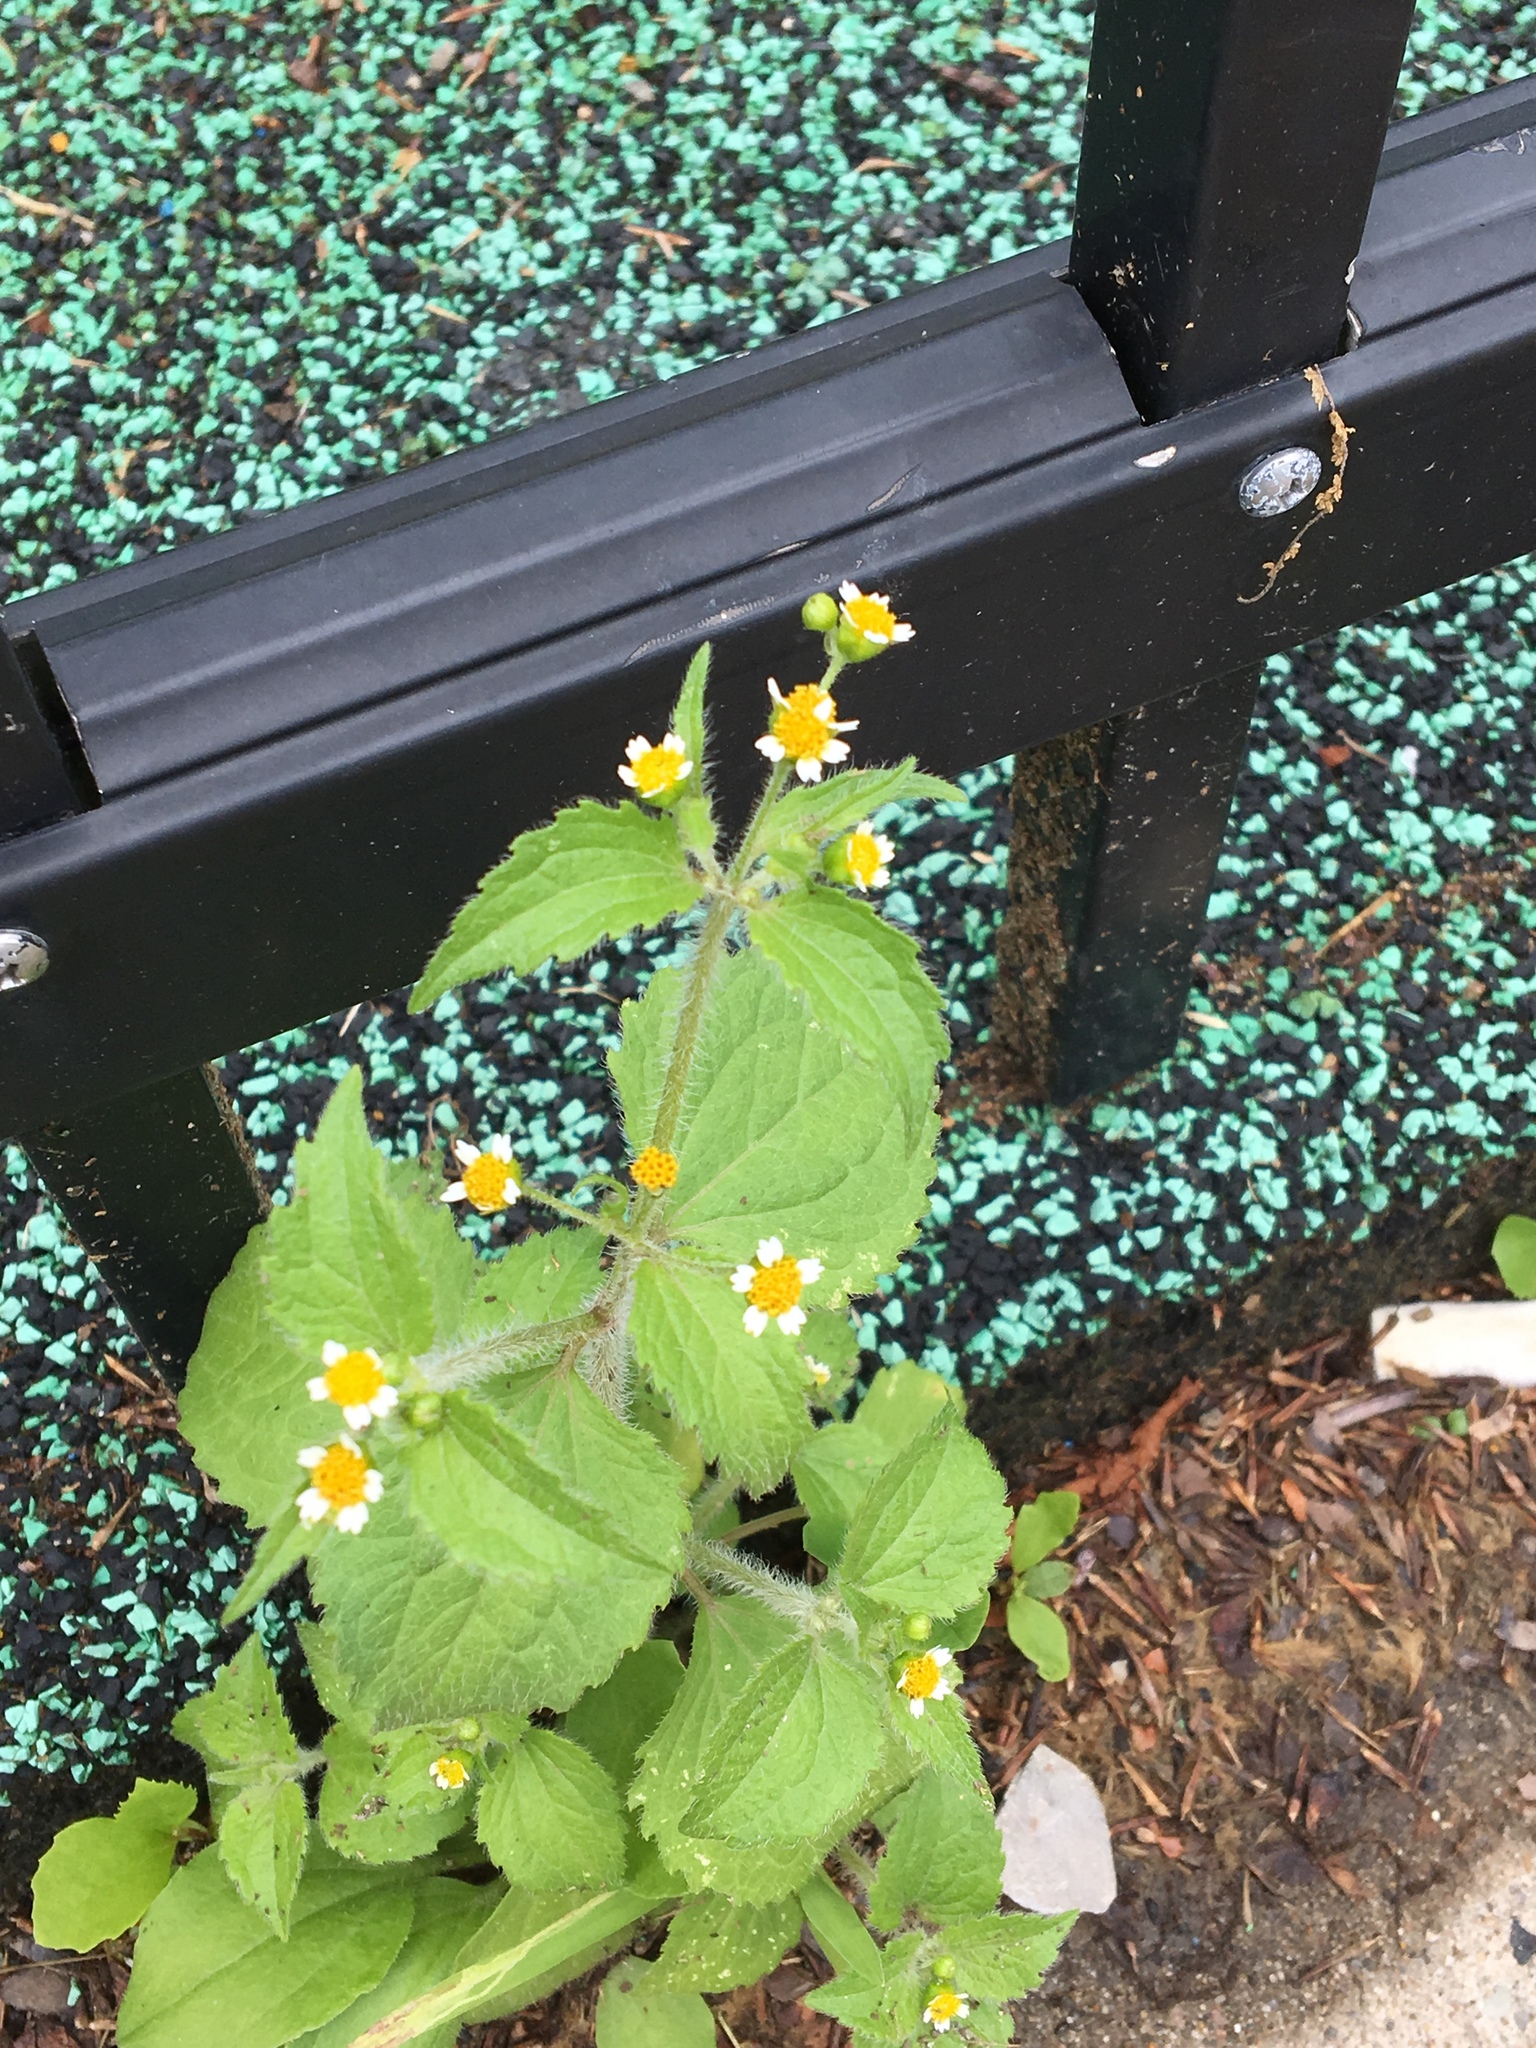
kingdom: Plantae
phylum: Tracheophyta
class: Magnoliopsida
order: Asterales
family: Asteraceae
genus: Galinsoga
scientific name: Galinsoga quadriradiata
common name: Shaggy soldier
